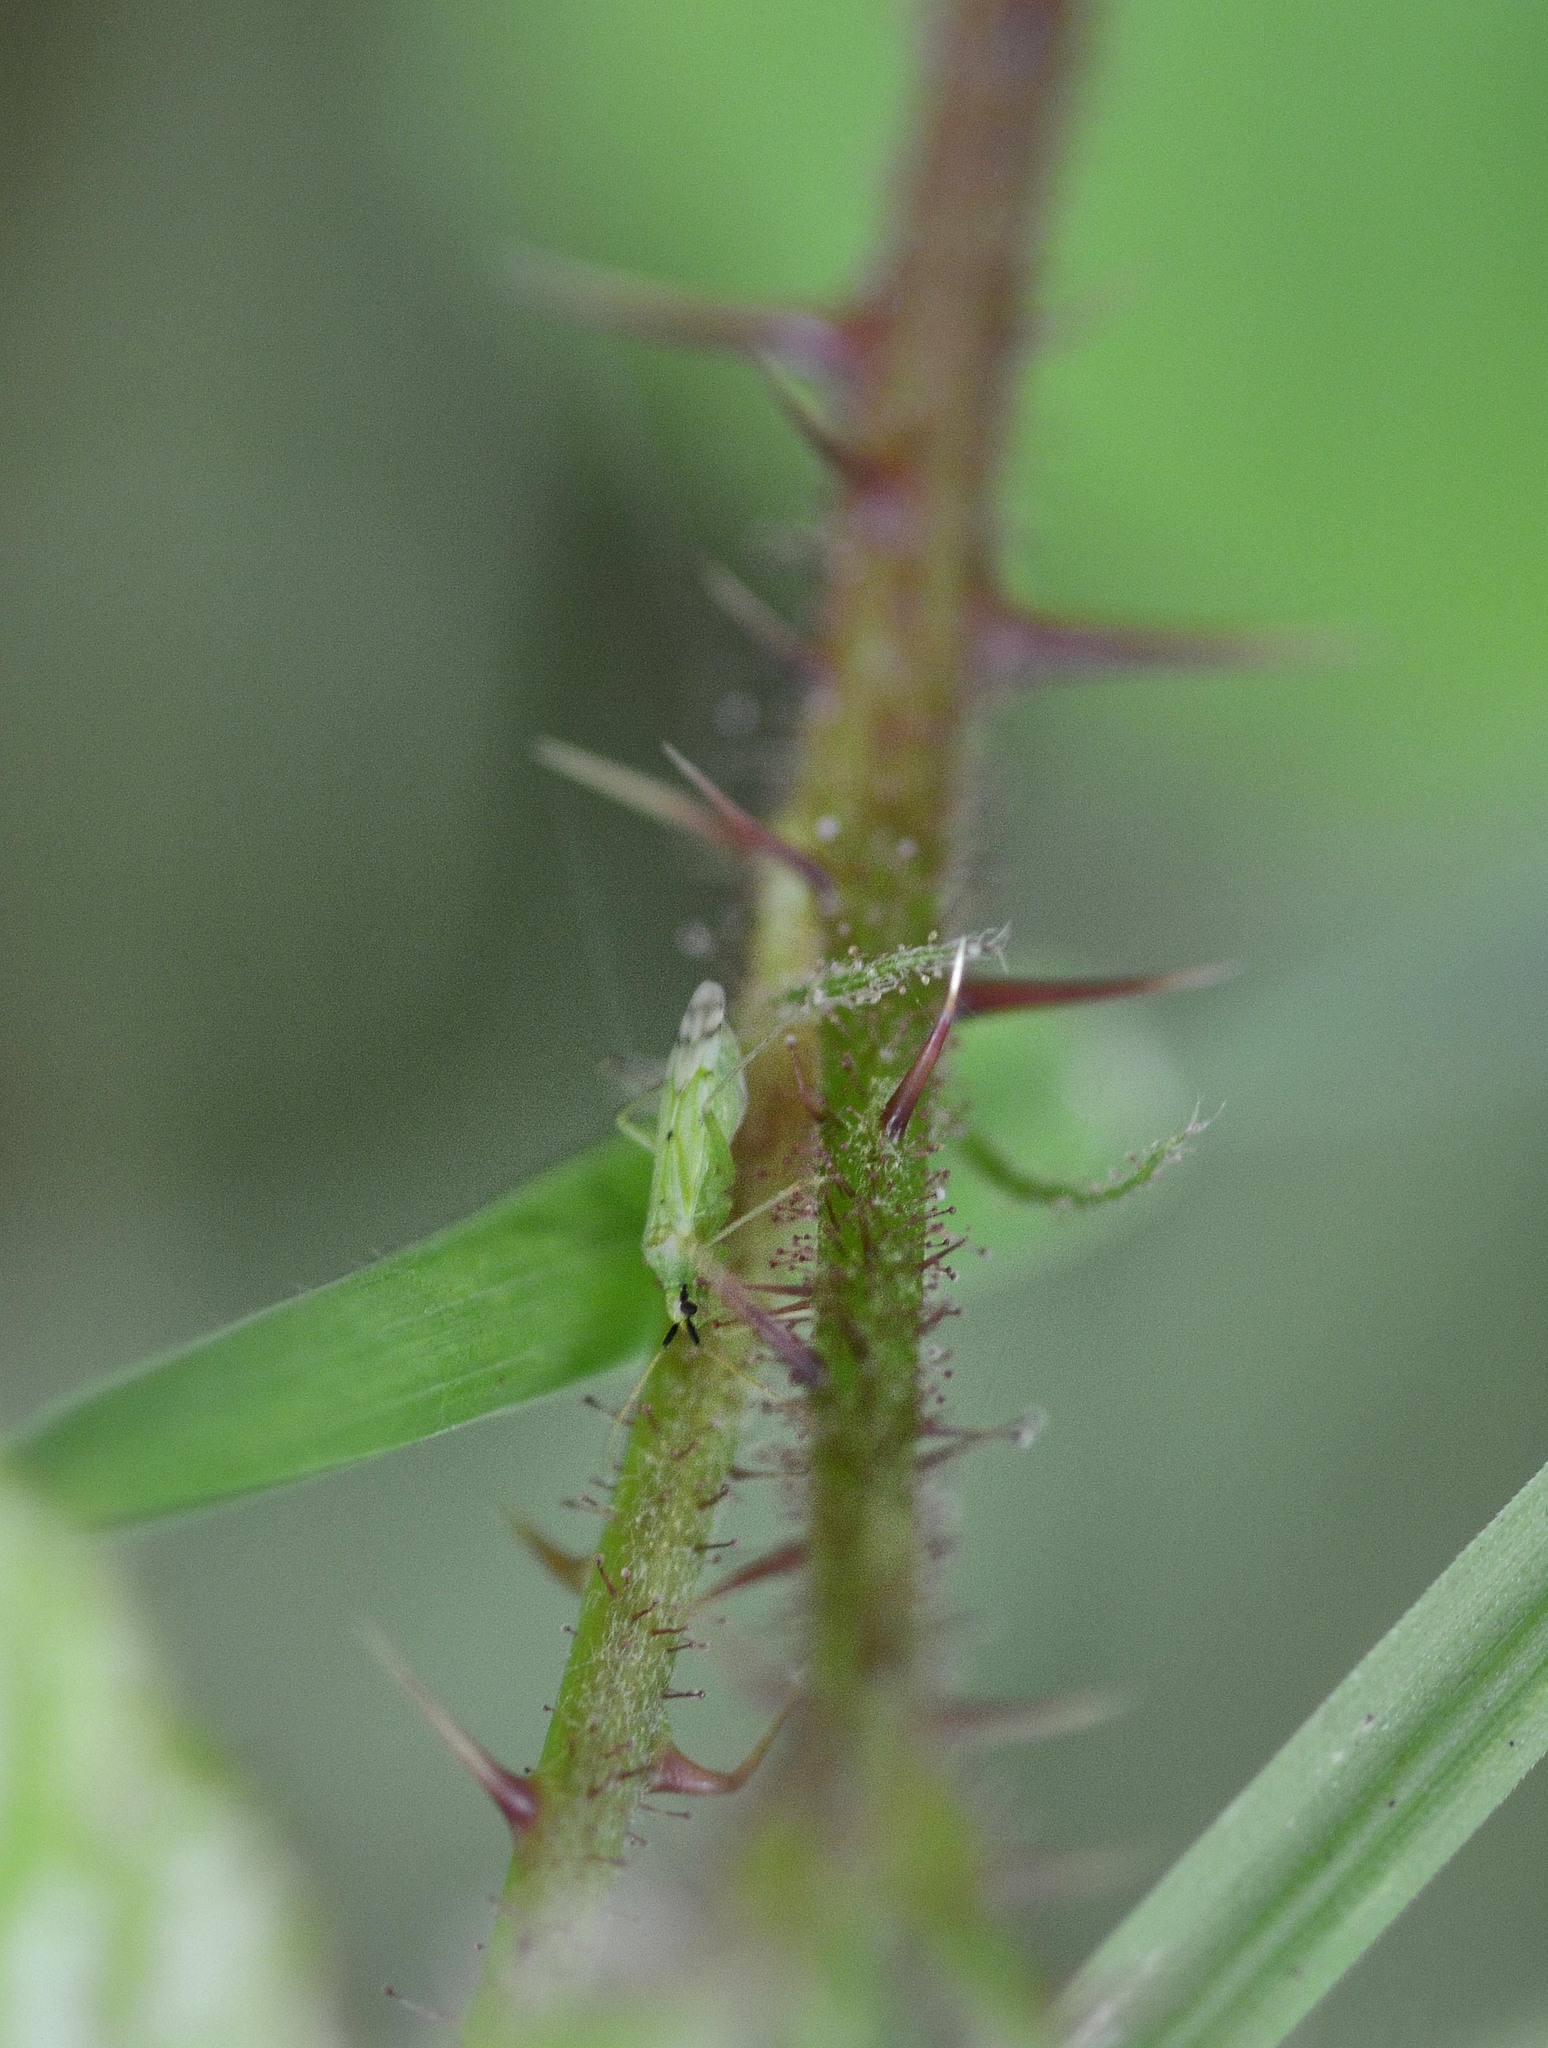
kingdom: Animalia
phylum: Arthropoda
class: Insecta
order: Hemiptera
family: Miridae
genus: Macrolophus
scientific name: Macrolophus costalis
